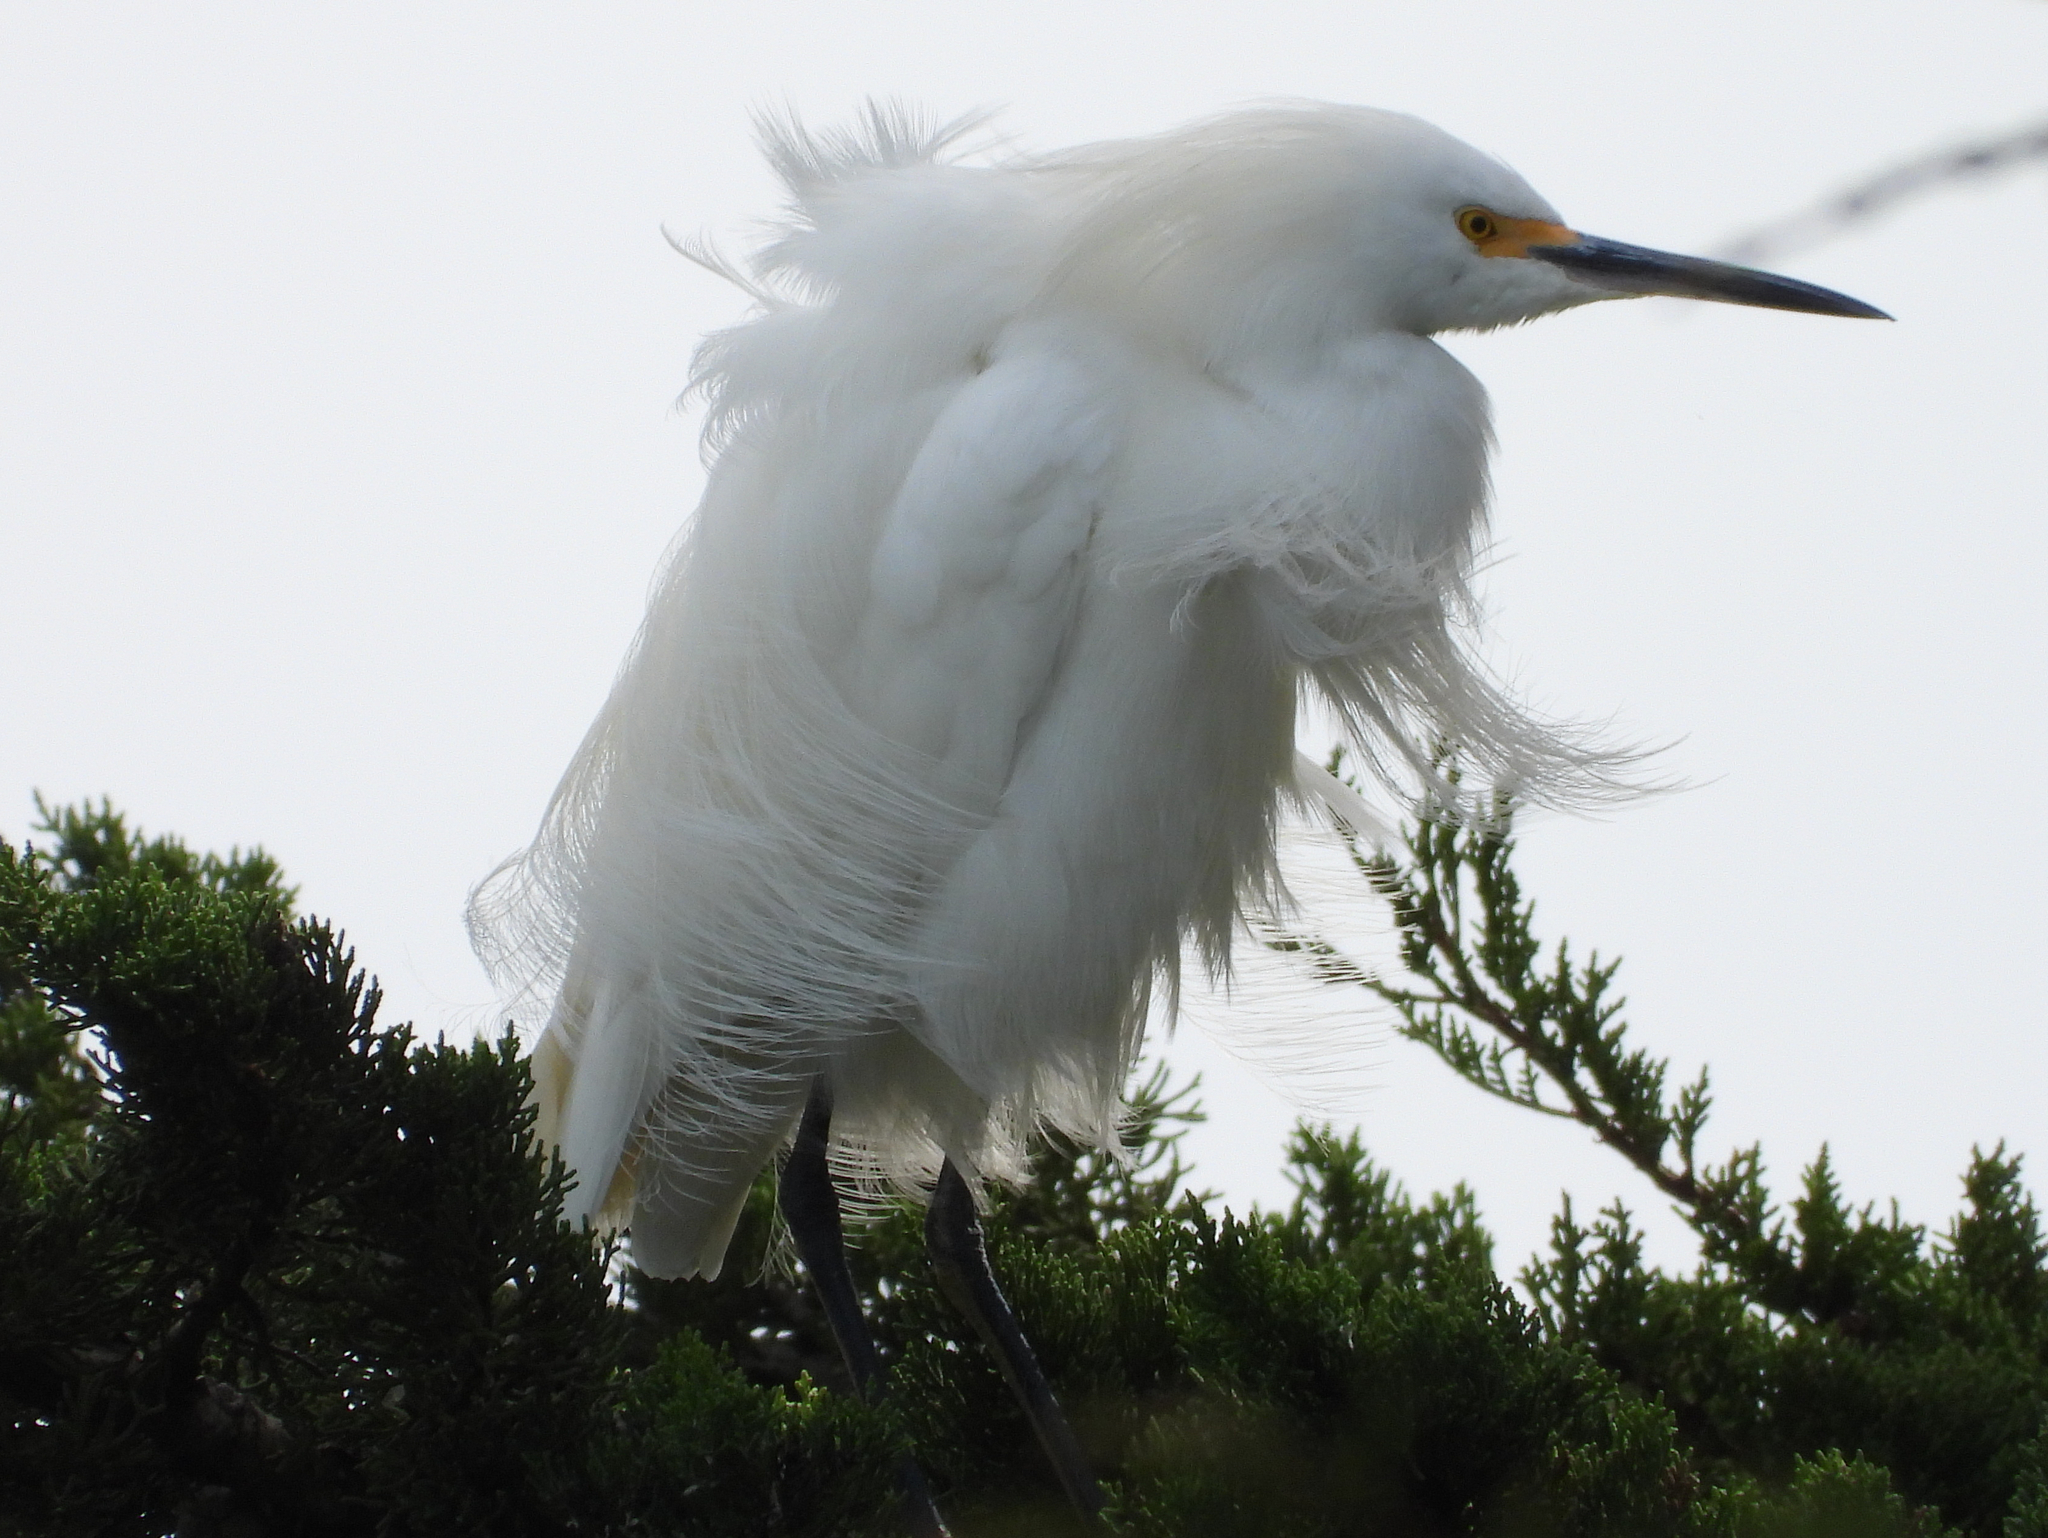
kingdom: Animalia
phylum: Chordata
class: Aves
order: Pelecaniformes
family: Ardeidae
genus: Egretta
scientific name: Egretta thula
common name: Snowy egret
